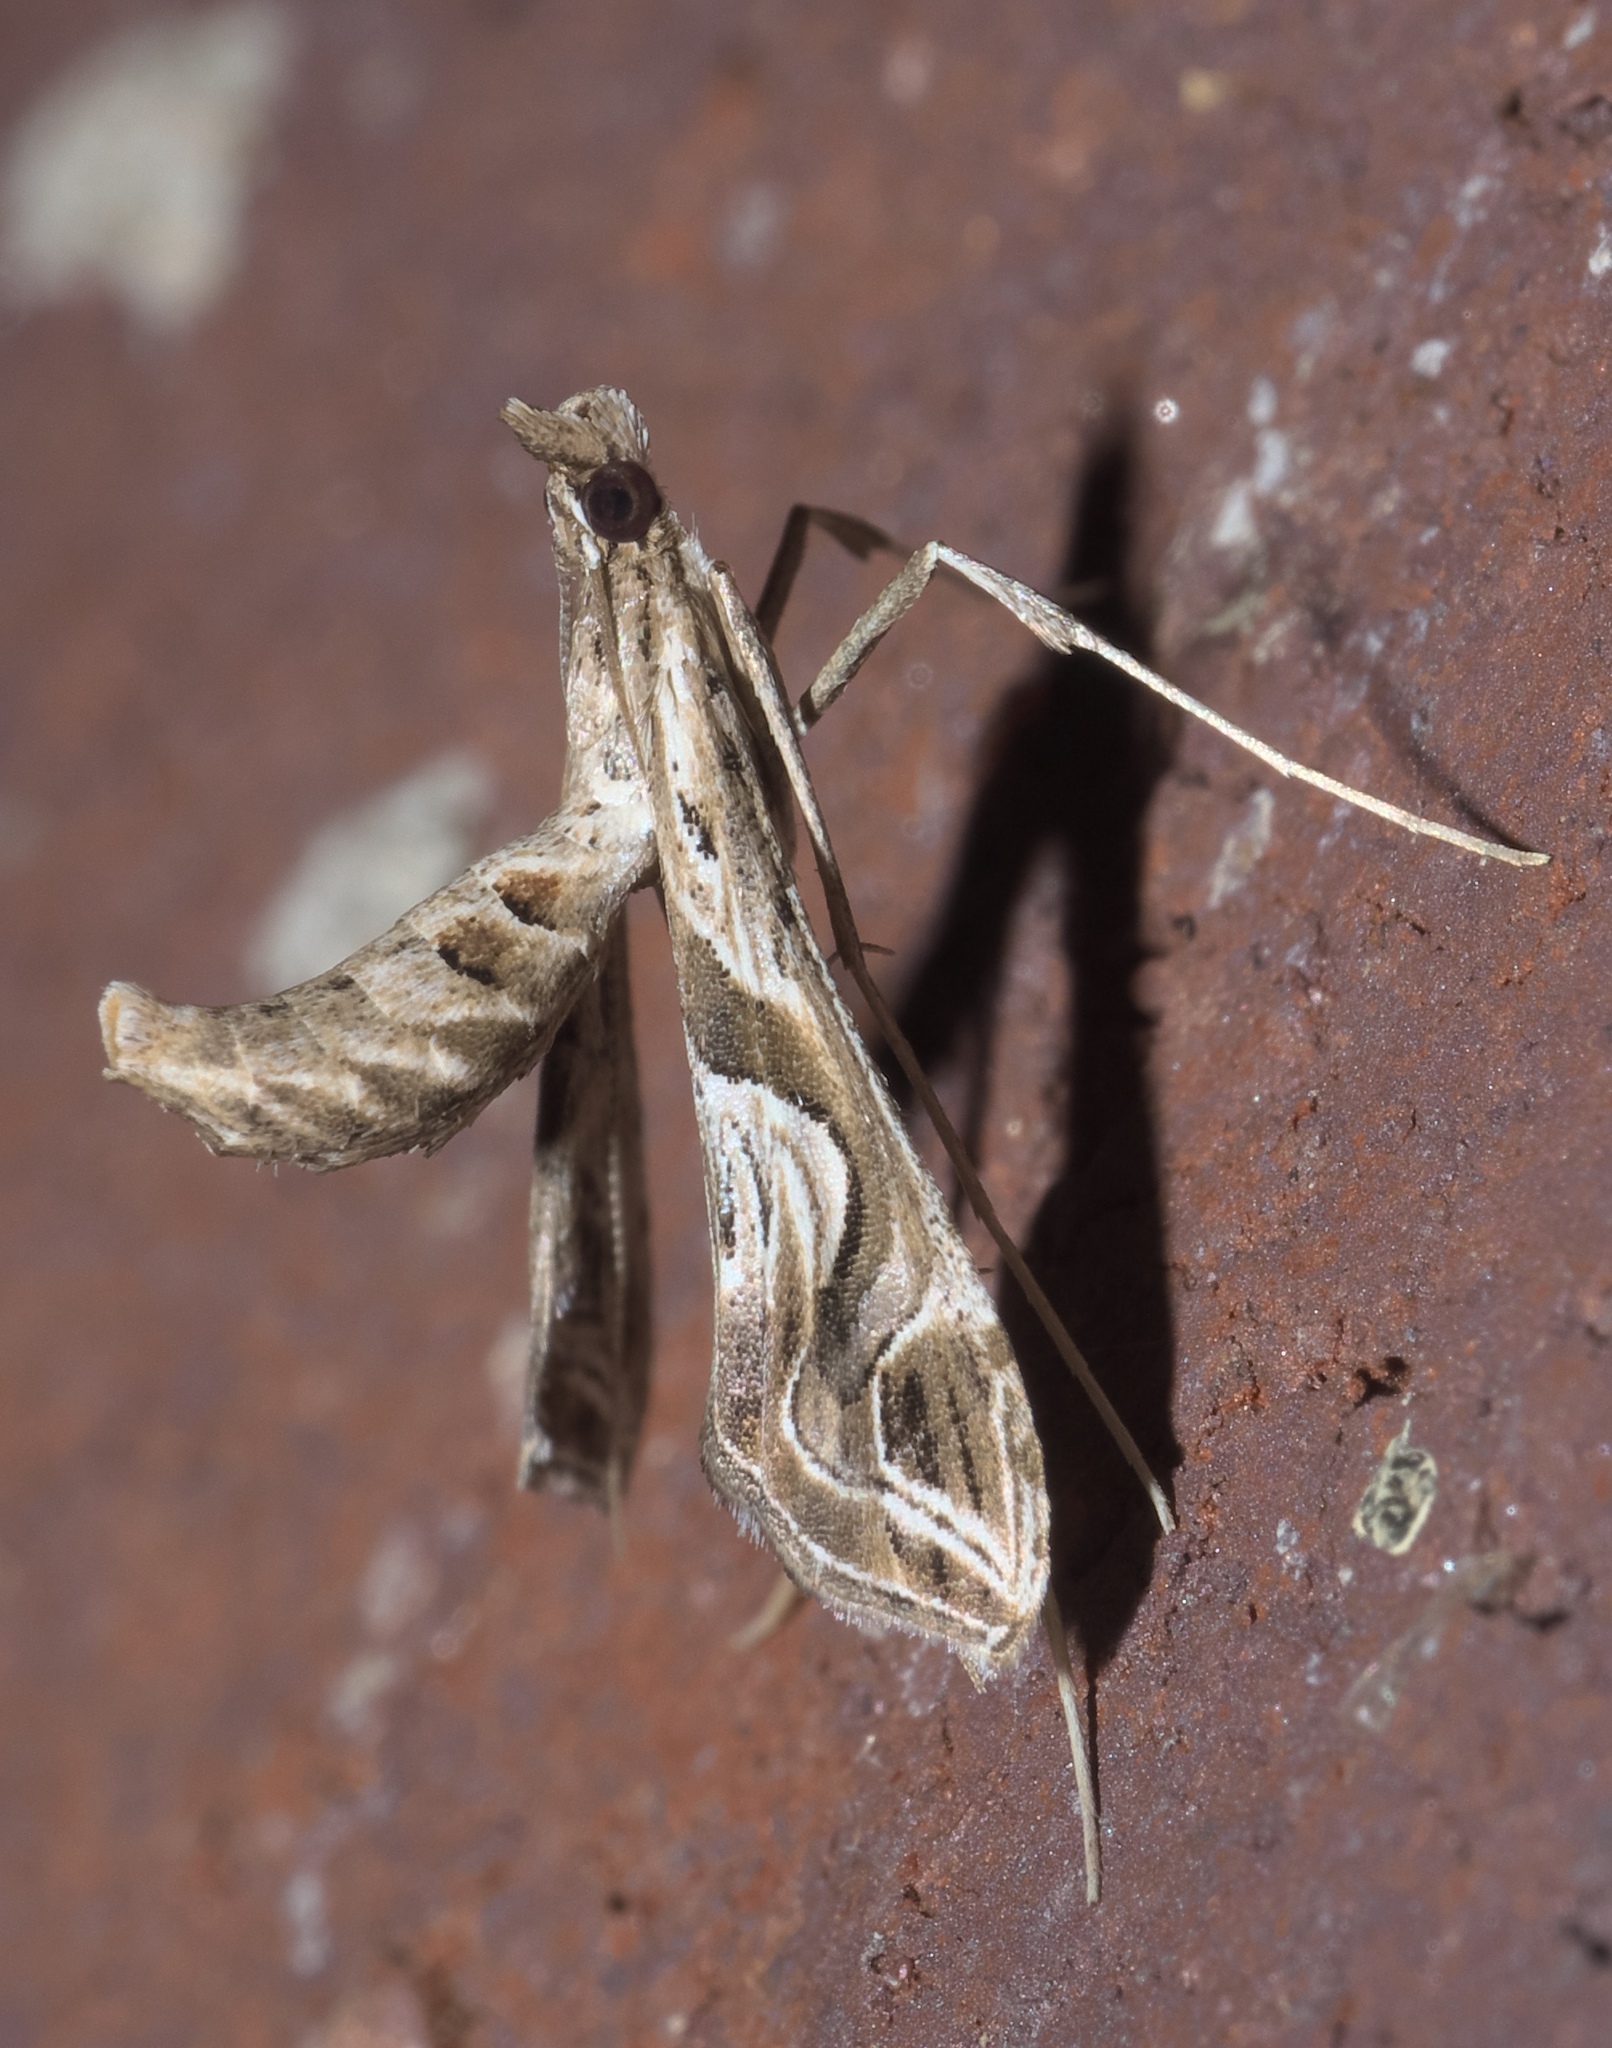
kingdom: Animalia
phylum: Arthropoda
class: Insecta
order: Lepidoptera
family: Crambidae
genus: Lineodes
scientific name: Lineodes integra
